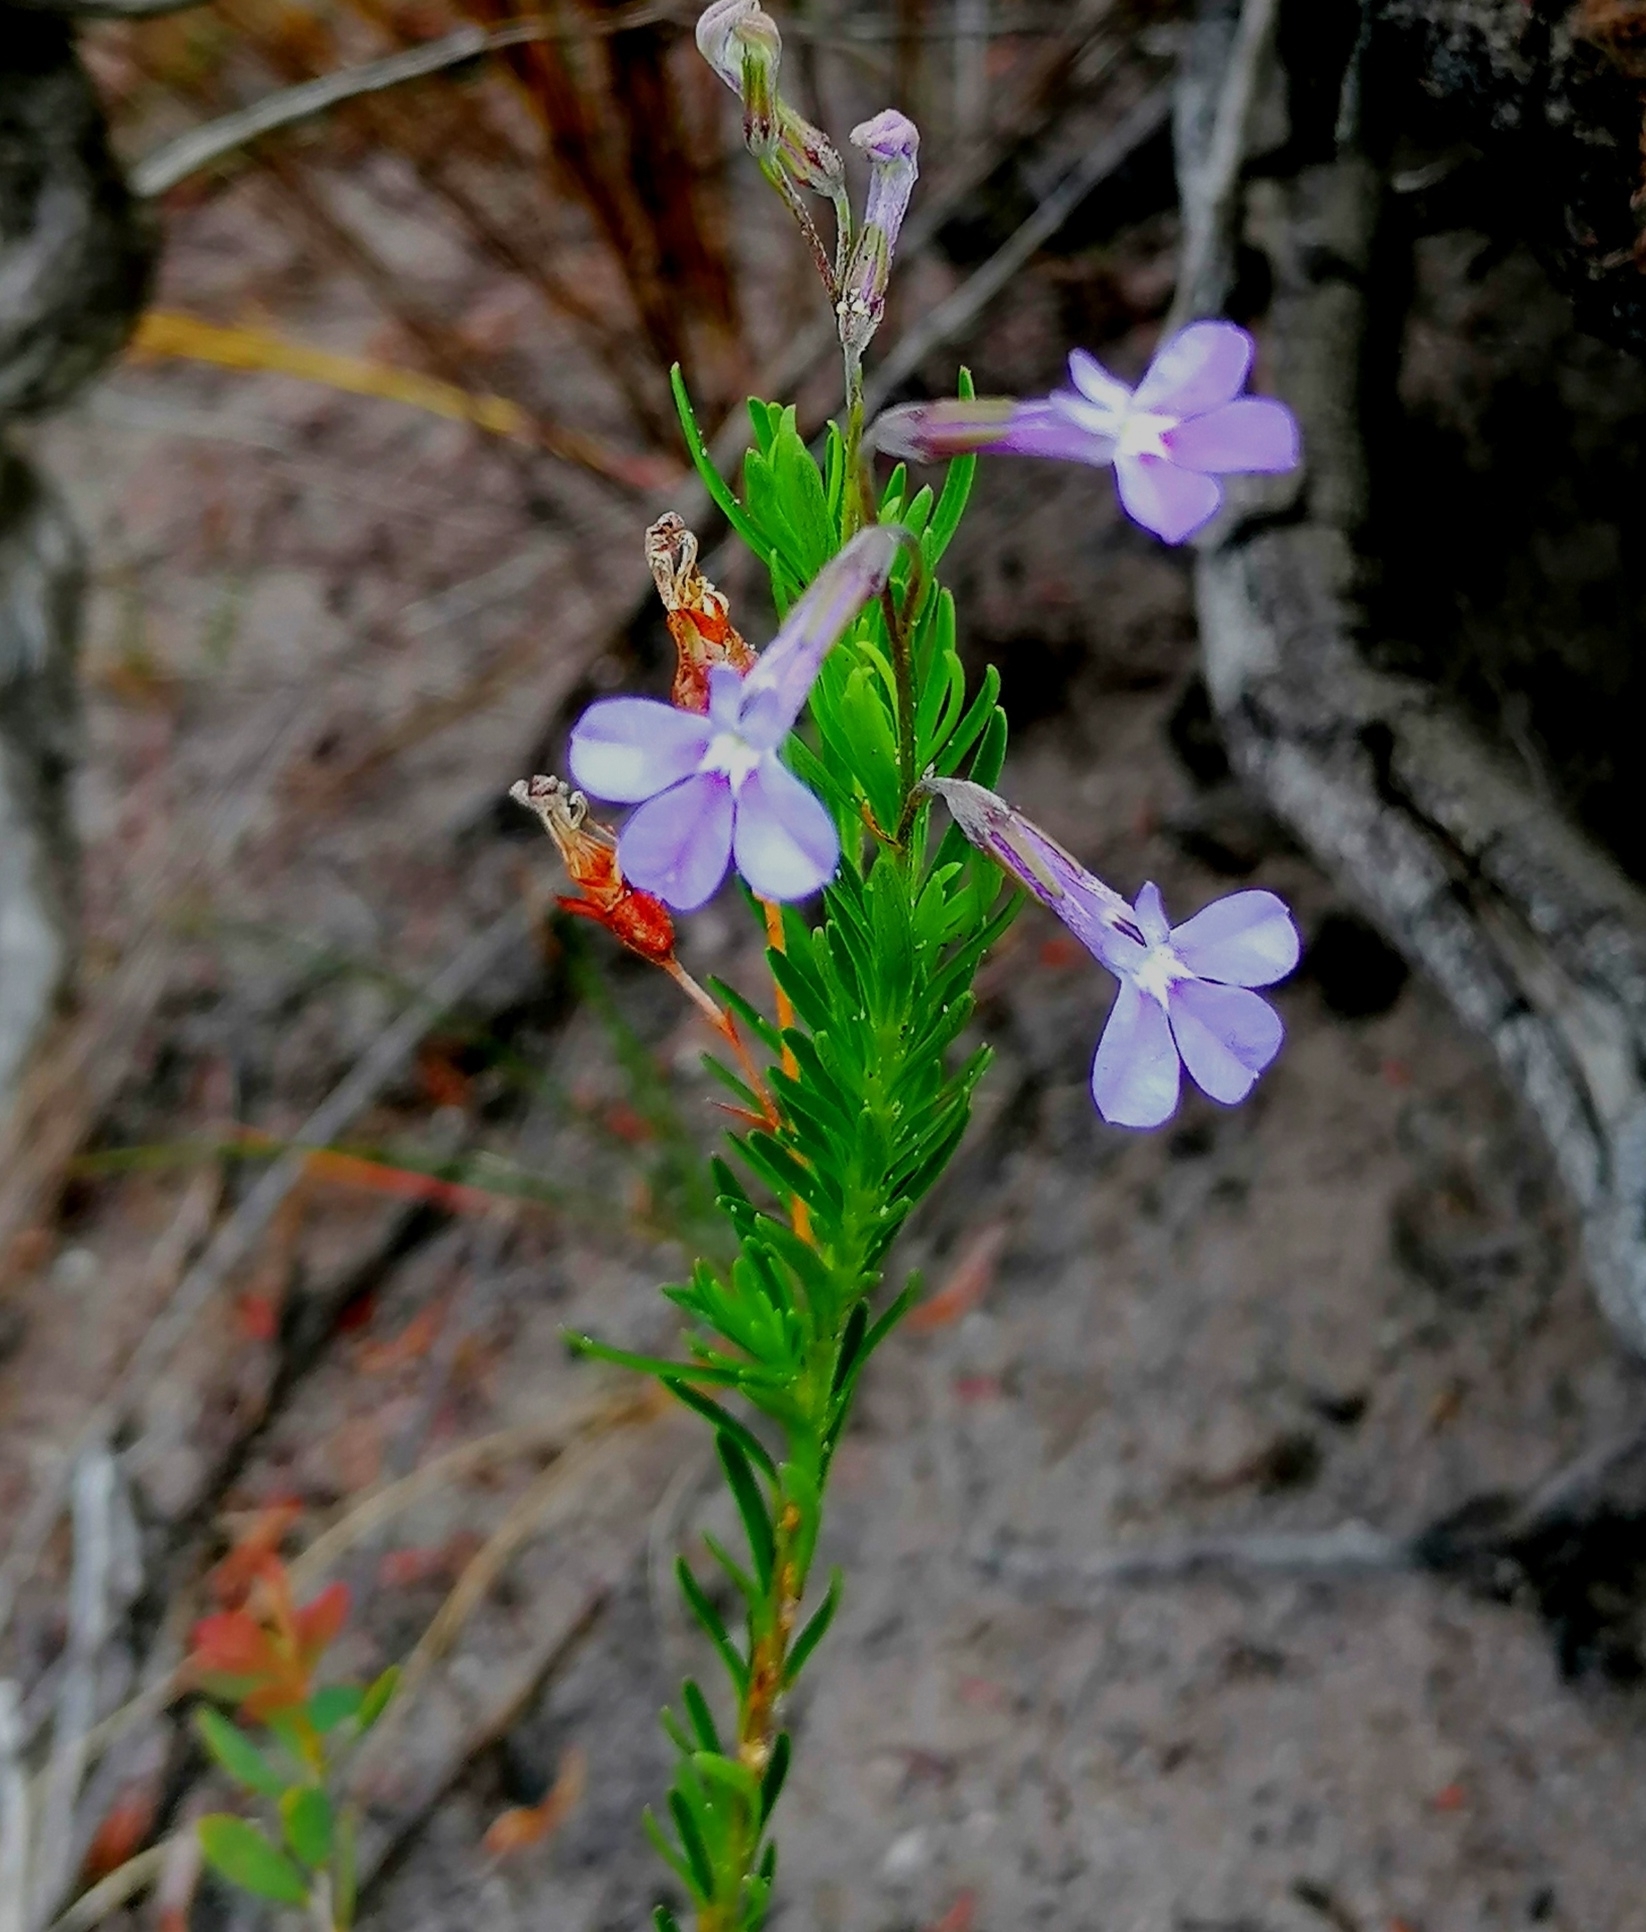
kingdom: Plantae
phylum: Tracheophyta
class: Magnoliopsida
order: Asterales
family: Campanulaceae
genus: Lobelia
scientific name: Lobelia pinifolia
